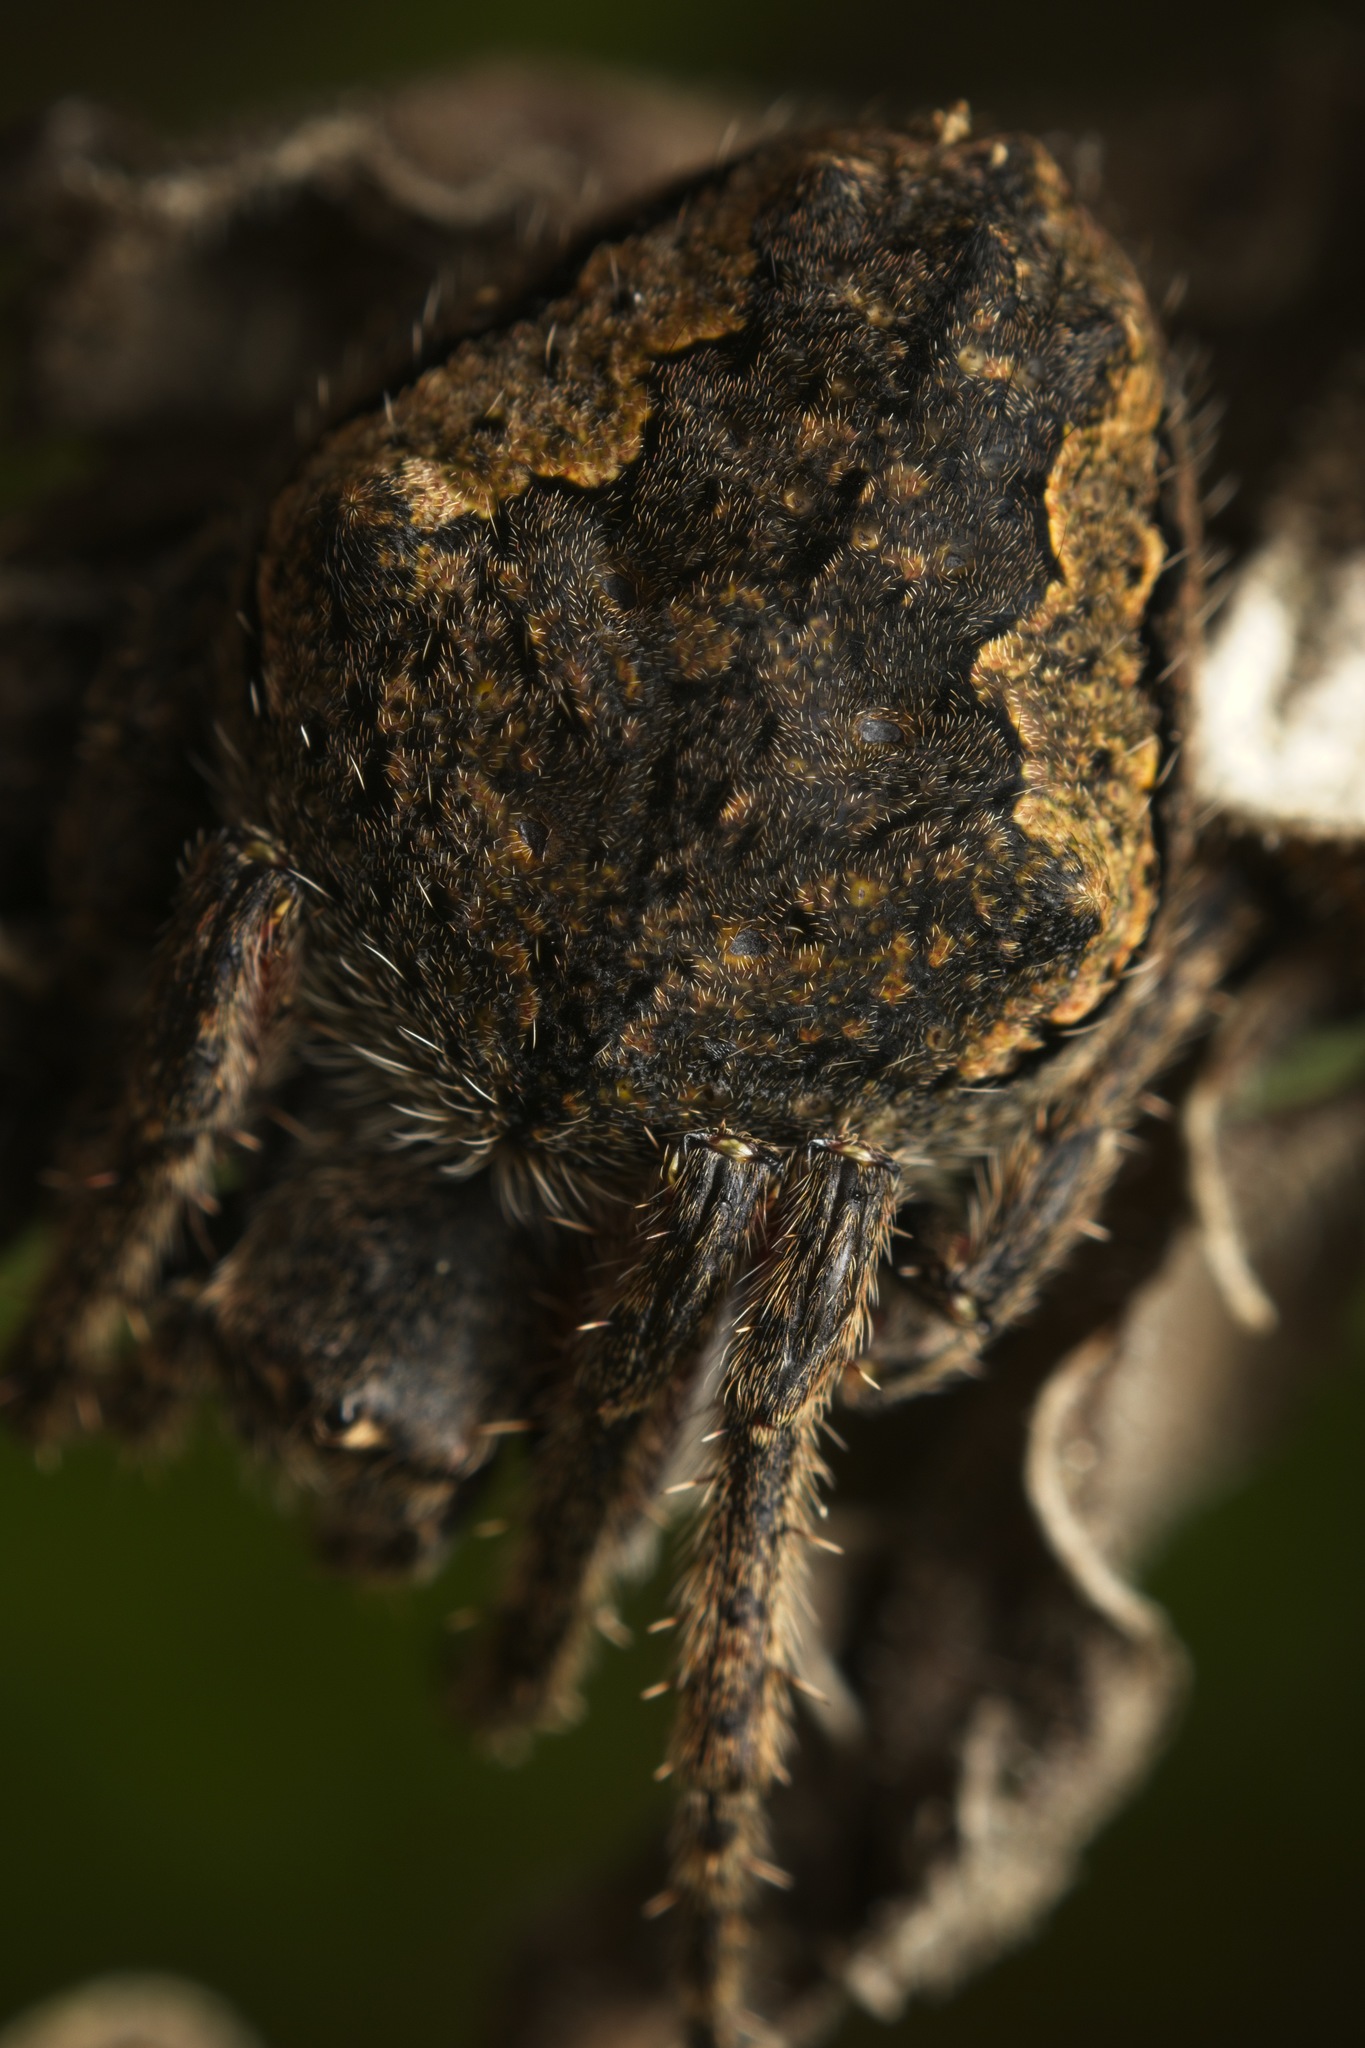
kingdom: Animalia
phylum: Arthropoda
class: Arachnida
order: Araneae
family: Araneidae
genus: Eriophora
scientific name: Eriophora pustulosa
